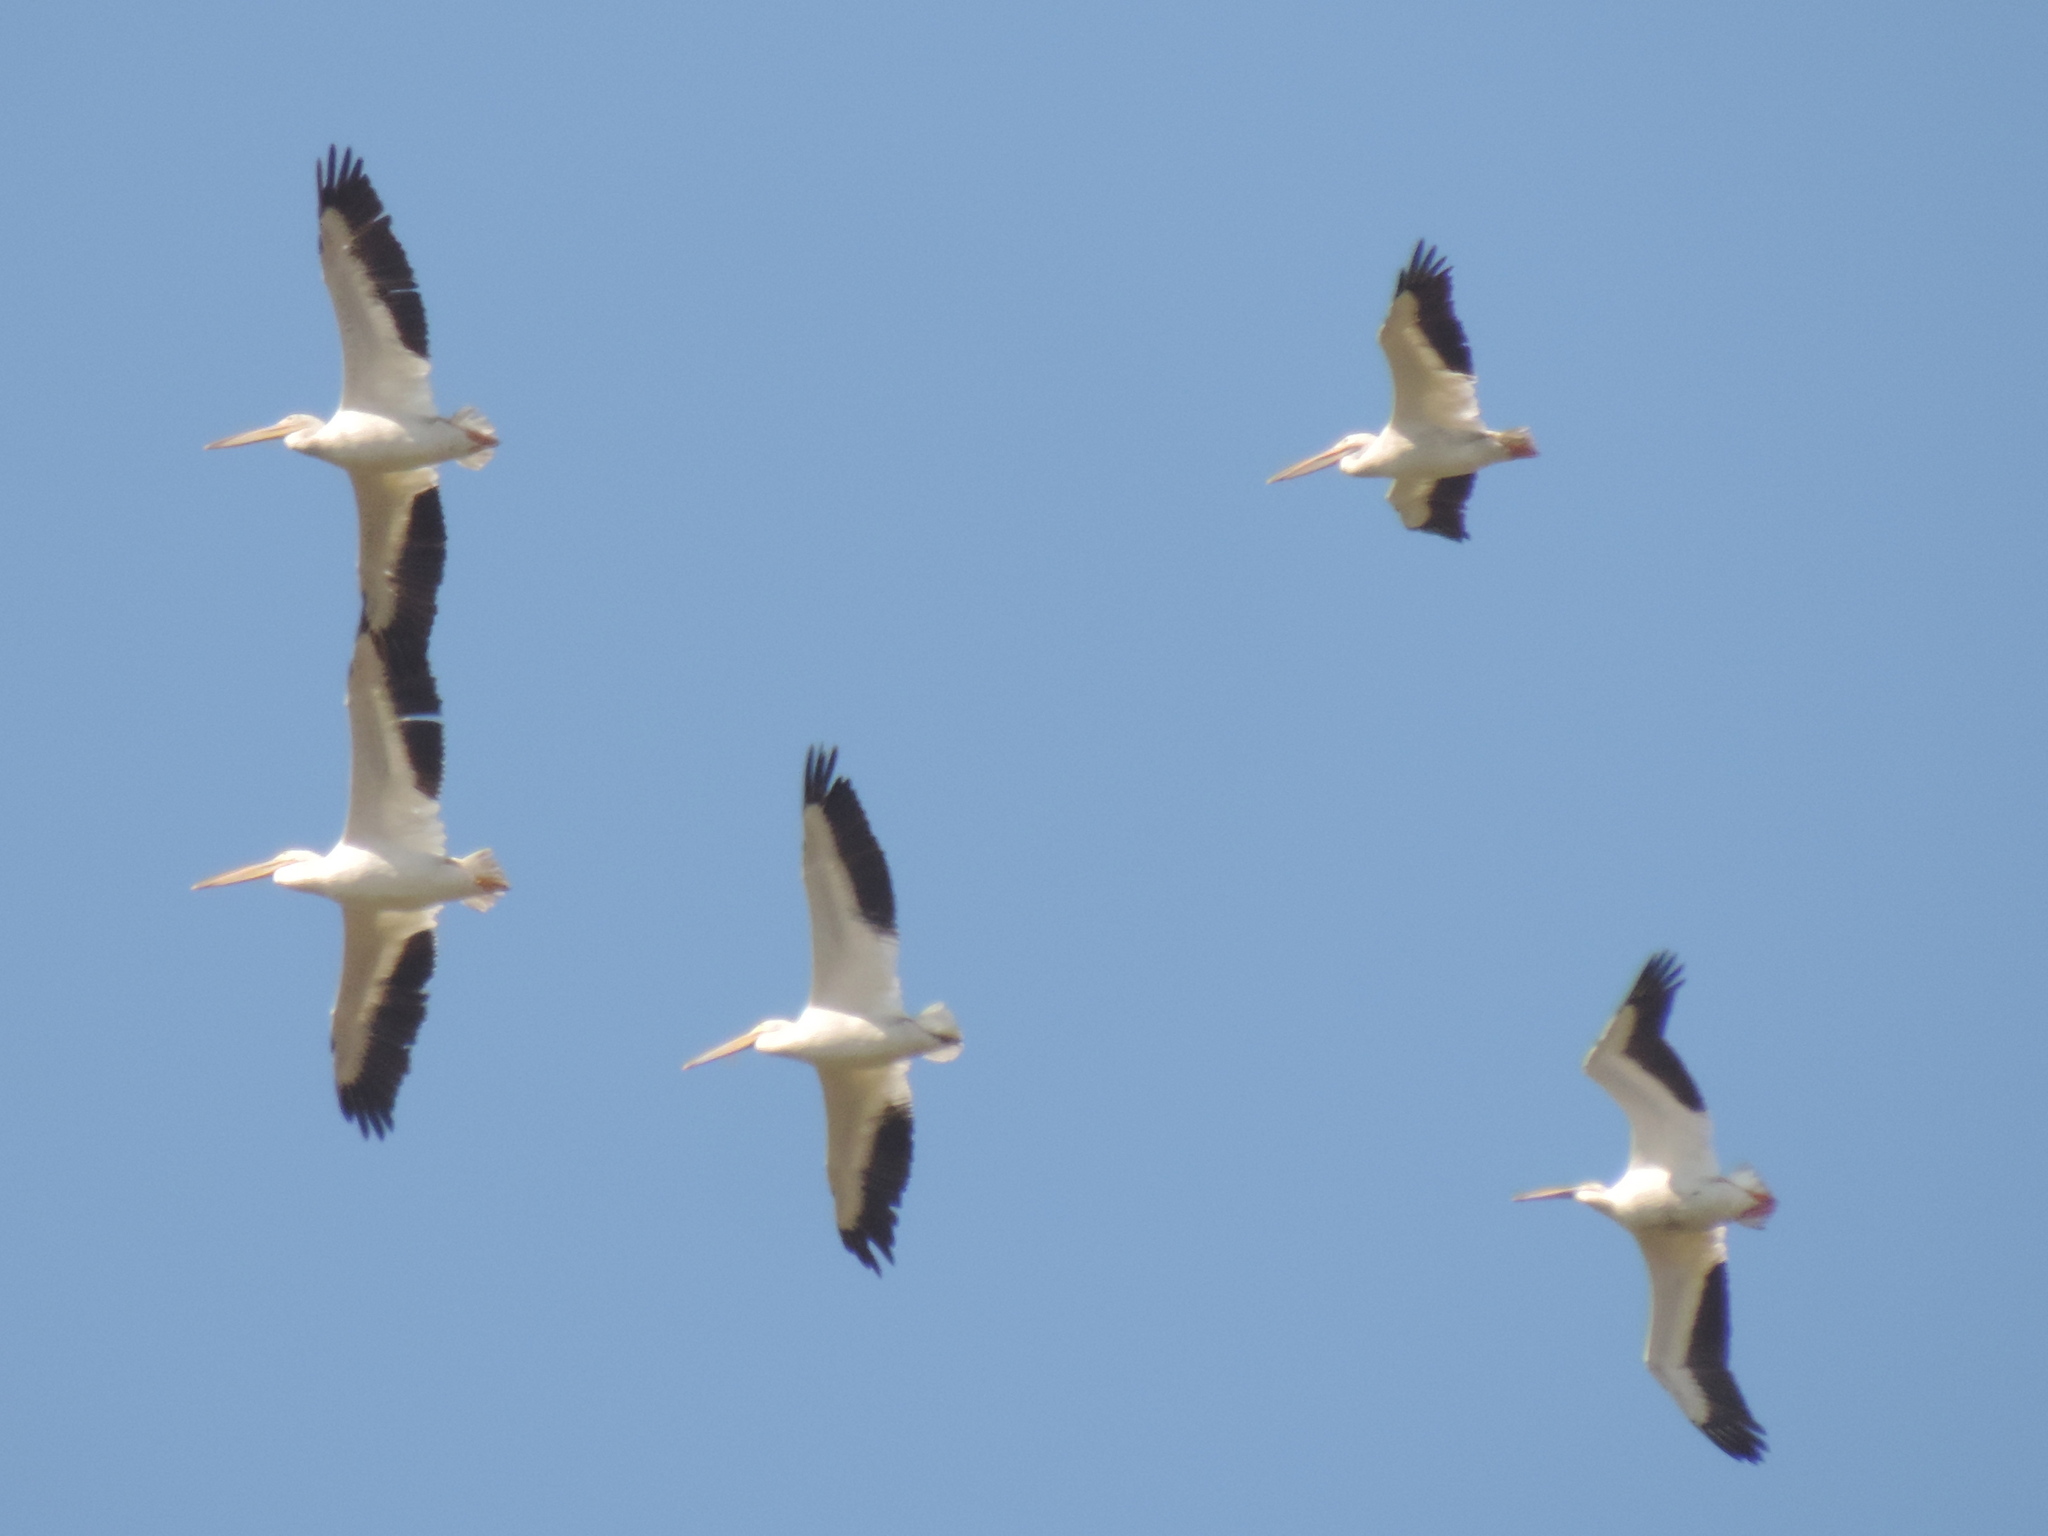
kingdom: Animalia
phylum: Chordata
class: Aves
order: Pelecaniformes
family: Pelecanidae
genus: Pelecanus
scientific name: Pelecanus erythrorhynchos
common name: American white pelican
